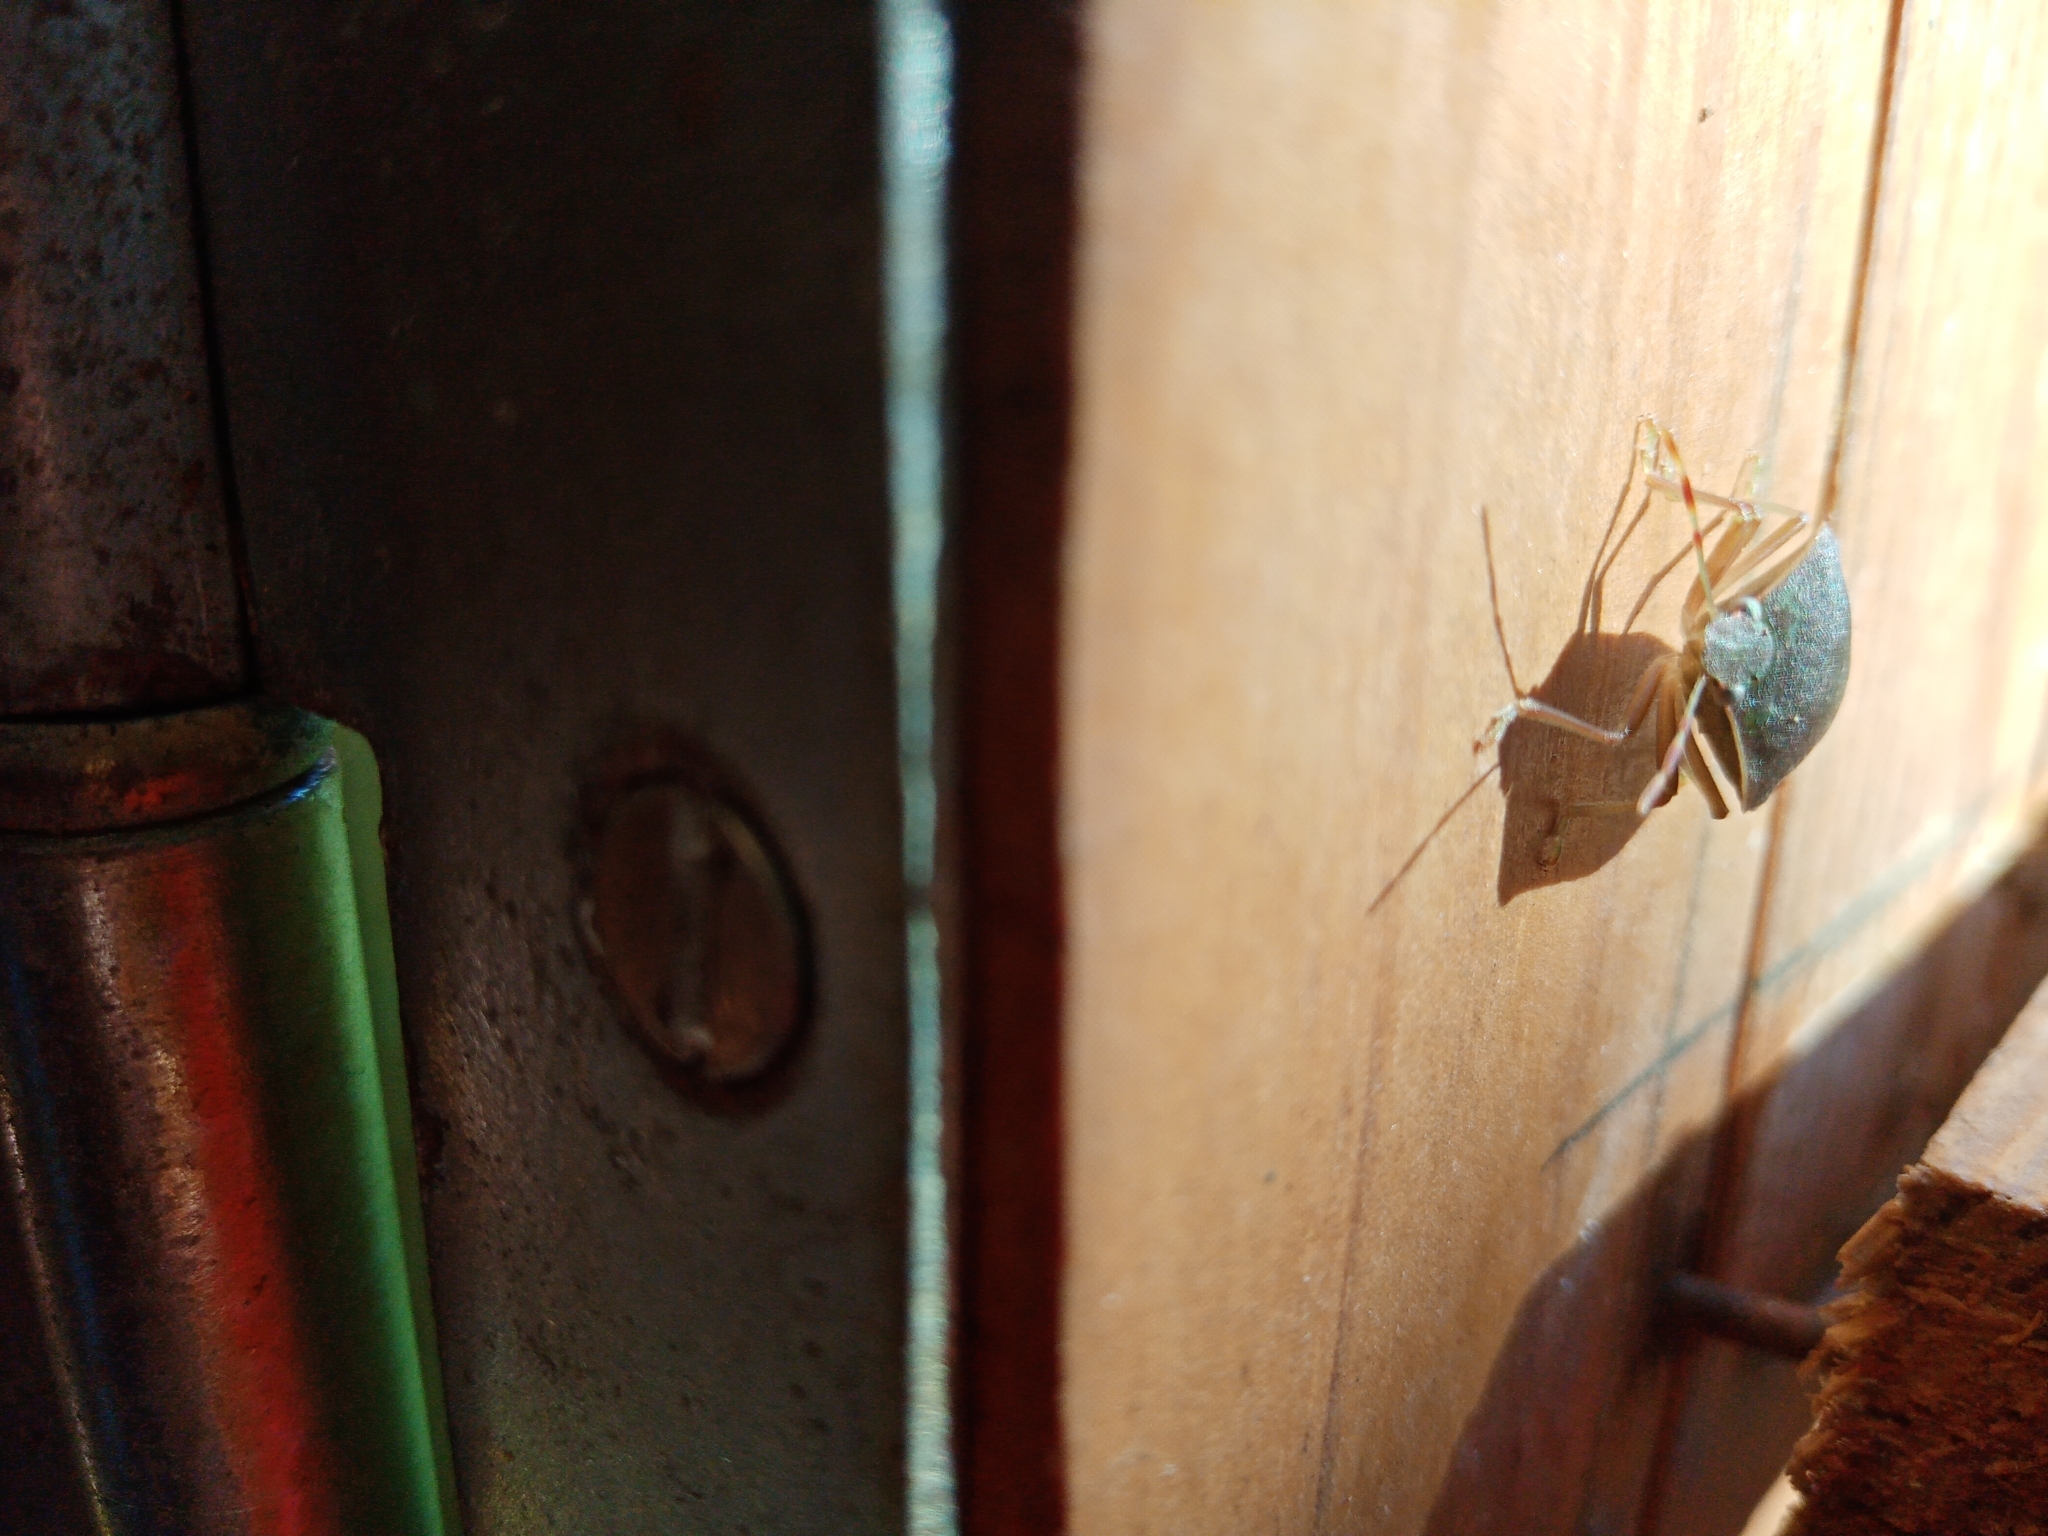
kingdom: Animalia
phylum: Arthropoda
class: Insecta
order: Hemiptera
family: Pentatomidae
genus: Nezara
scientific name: Nezara viridula
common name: Southern green stink bug
